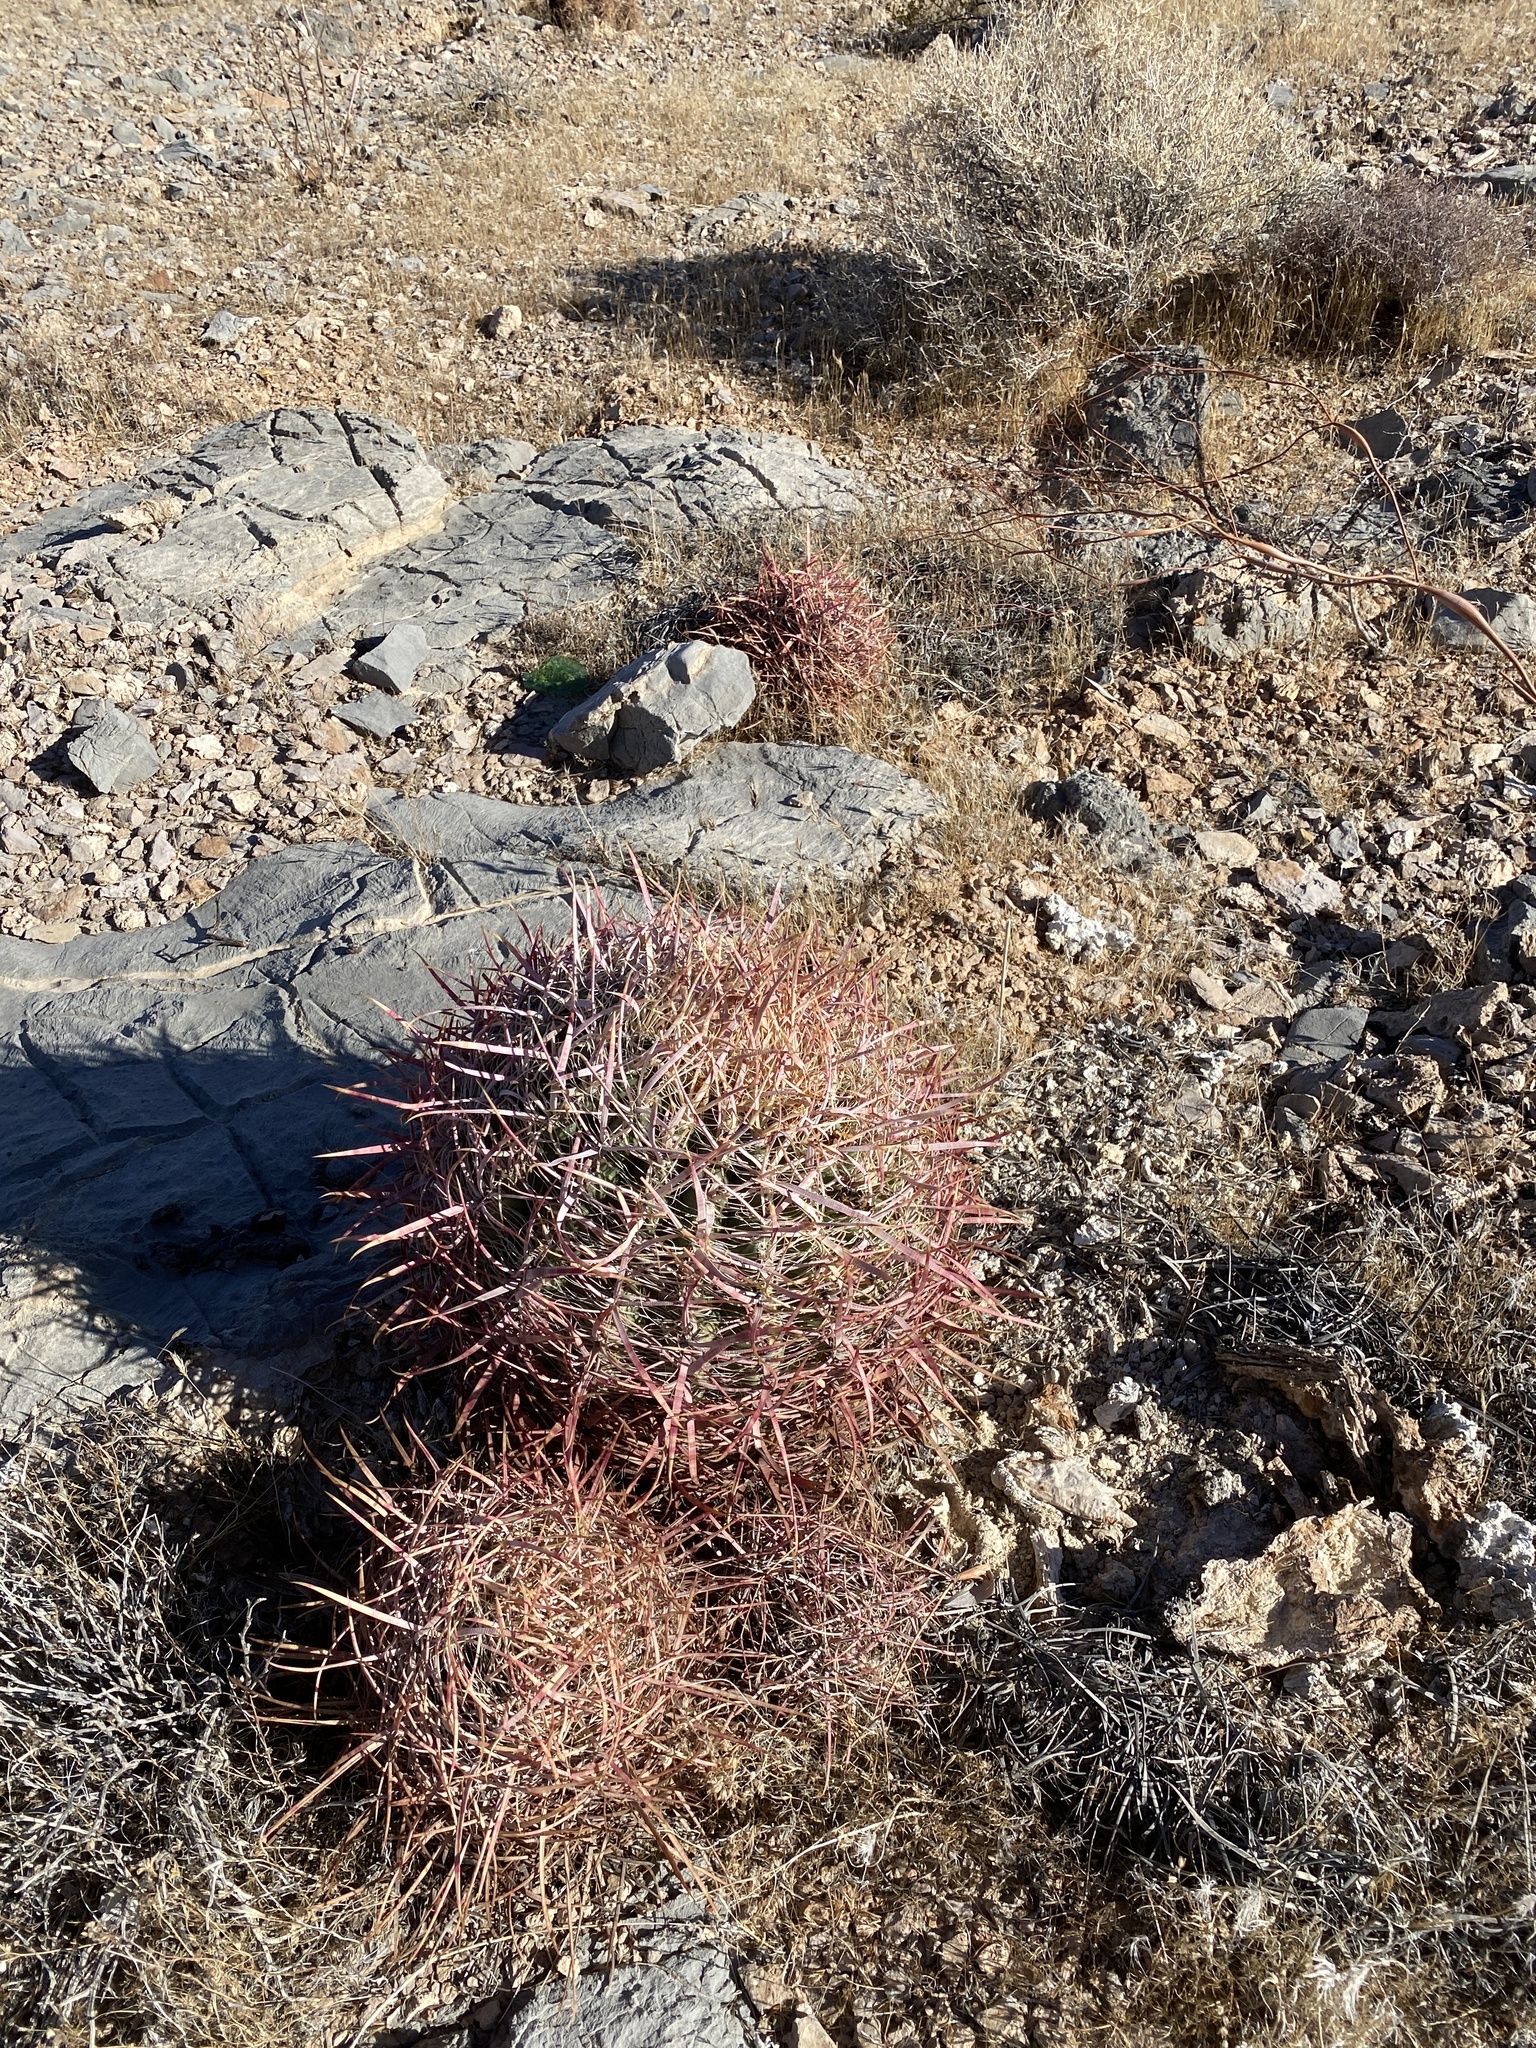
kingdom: Plantae
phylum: Tracheophyta
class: Magnoliopsida
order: Caryophyllales
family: Cactaceae
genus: Ferocactus
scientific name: Ferocactus cylindraceus
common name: California barrel cactus
